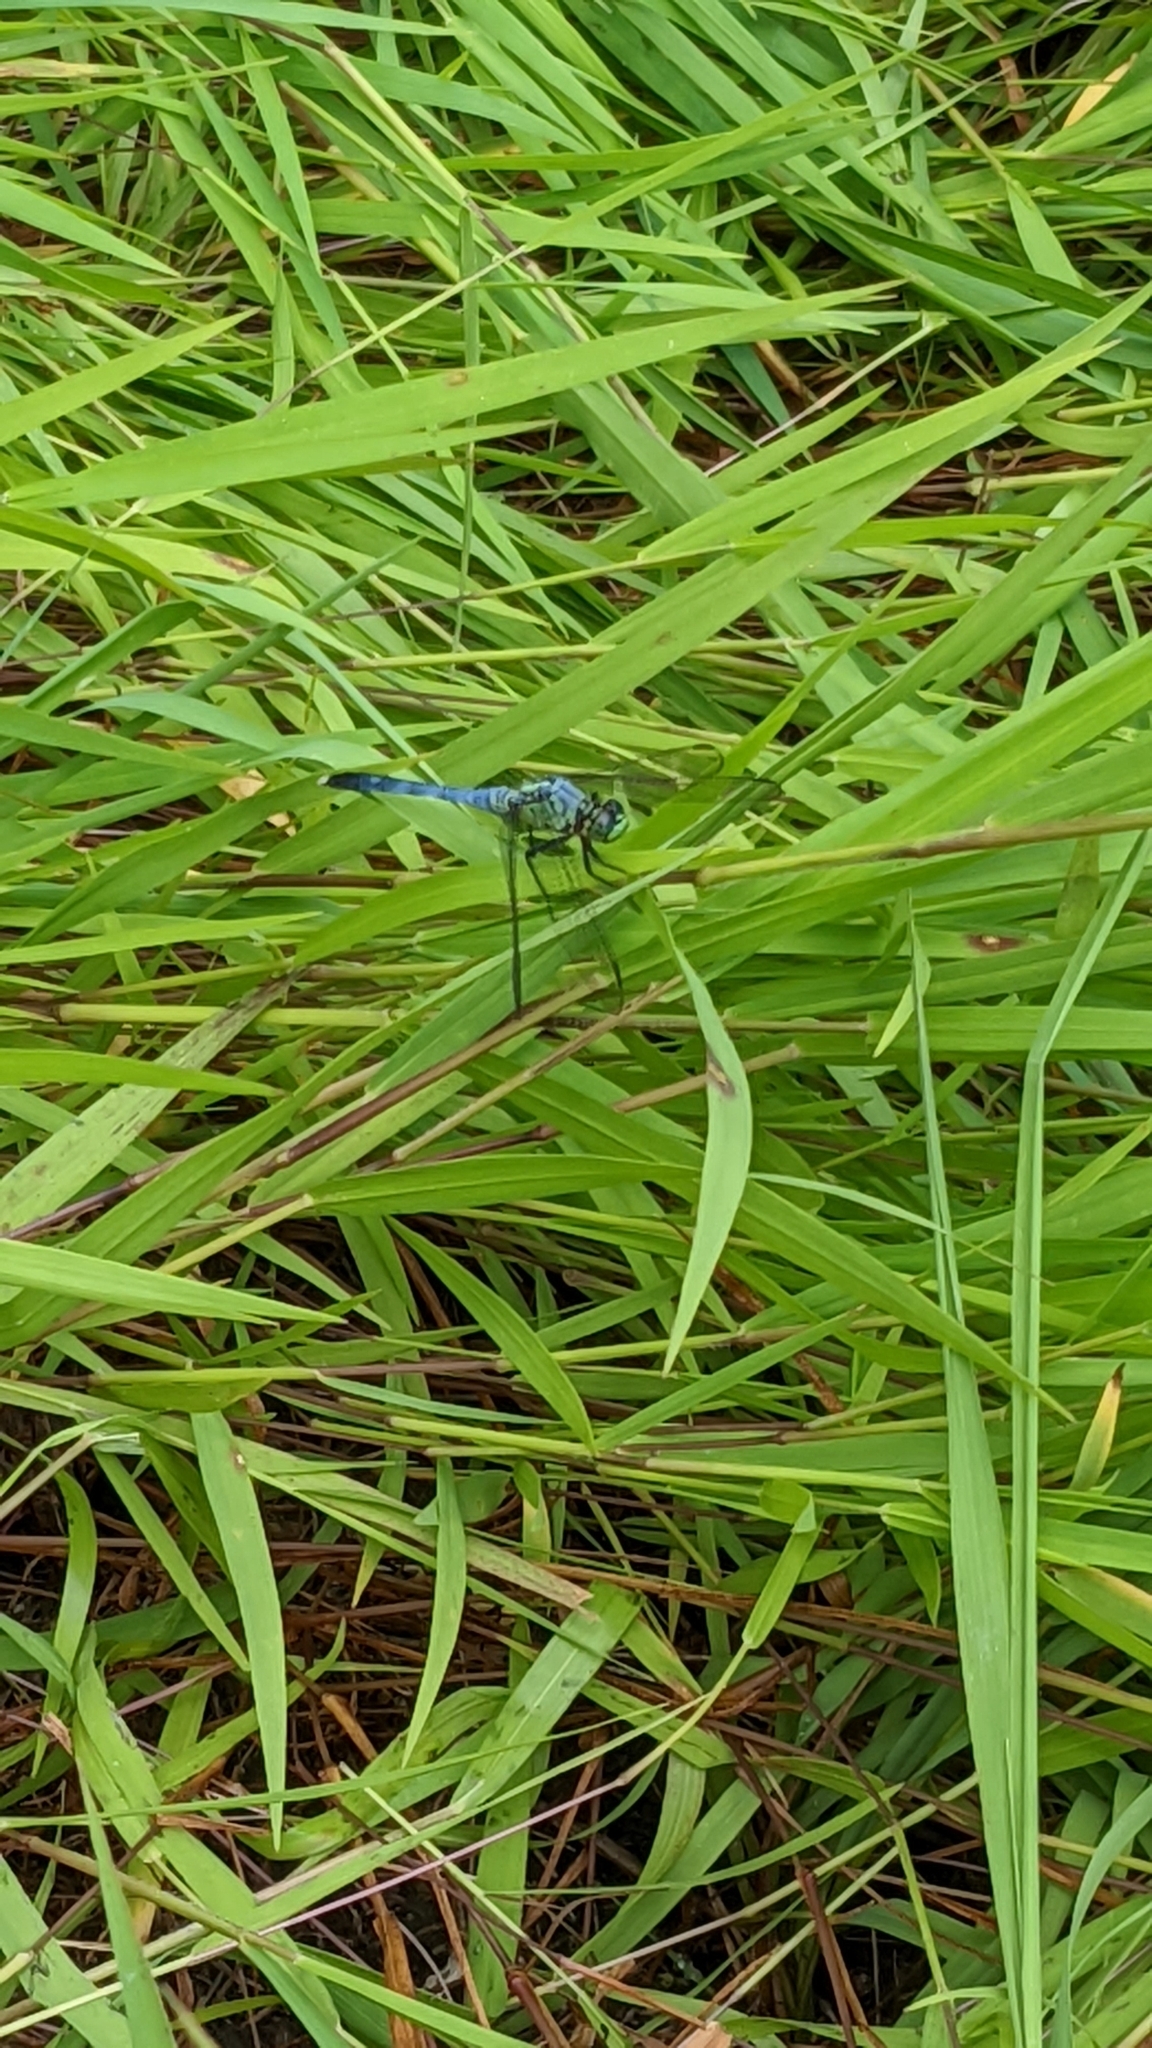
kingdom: Animalia
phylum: Arthropoda
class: Insecta
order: Odonata
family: Libellulidae
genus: Erythemis
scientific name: Erythemis simplicicollis
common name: Eastern pondhawk
